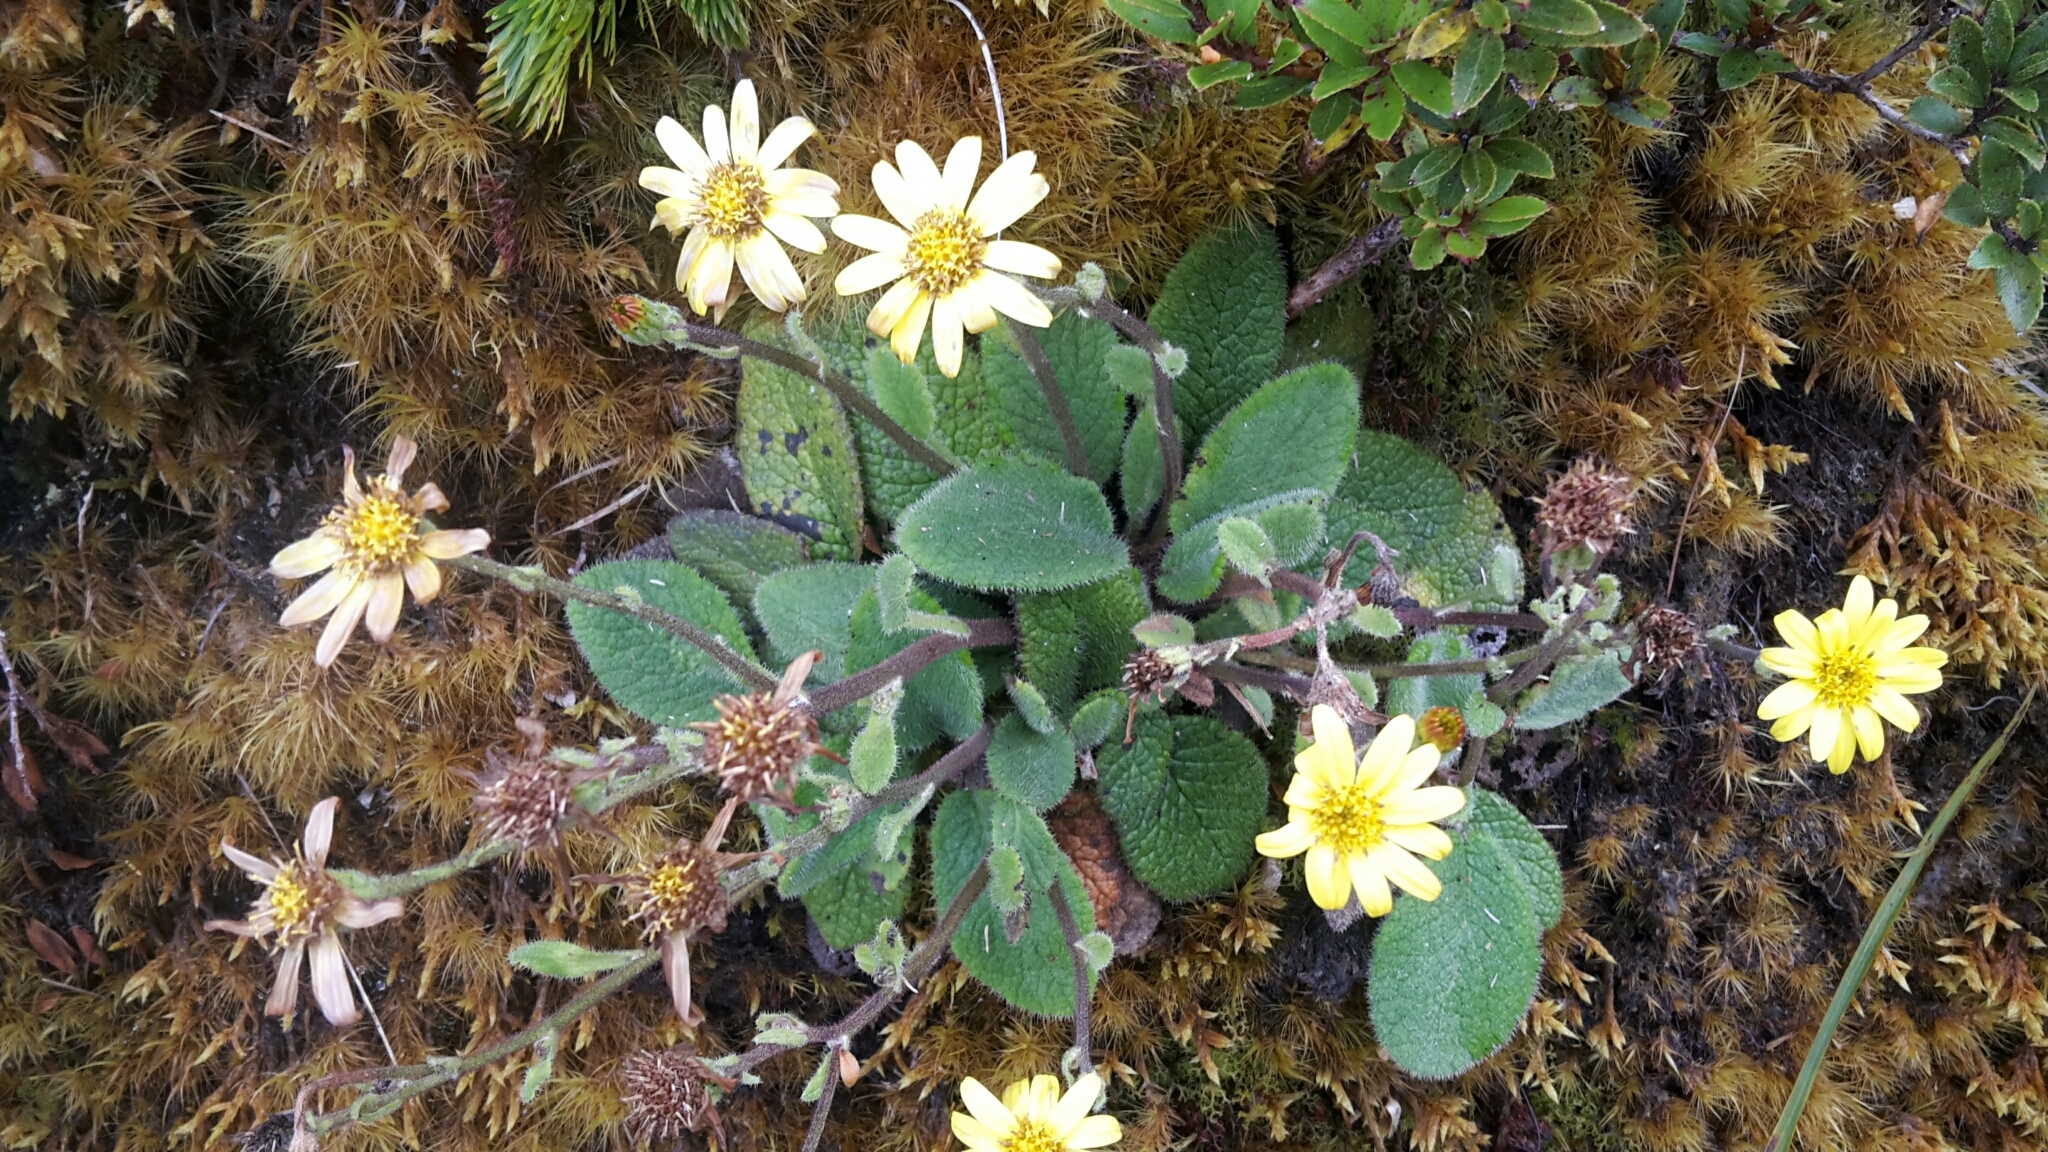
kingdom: Plantae
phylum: Tracheophyta
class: Magnoliopsida
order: Asterales
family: Asteraceae
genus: Brachyglottis
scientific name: Brachyglottis lagopus
